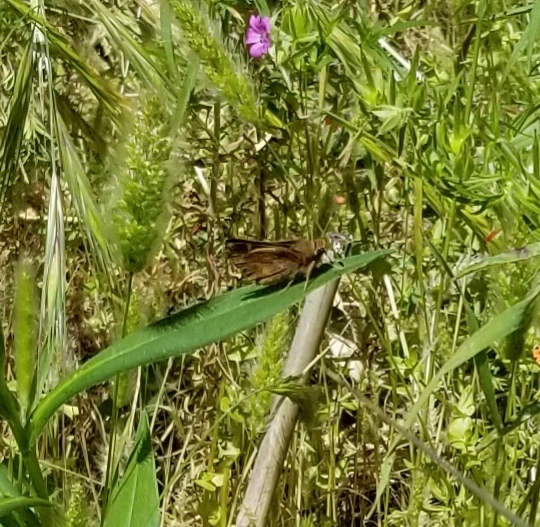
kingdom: Animalia
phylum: Arthropoda
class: Insecta
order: Lepidoptera
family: Hesperiidae
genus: Lon
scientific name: Lon melane
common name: Umber skipper
